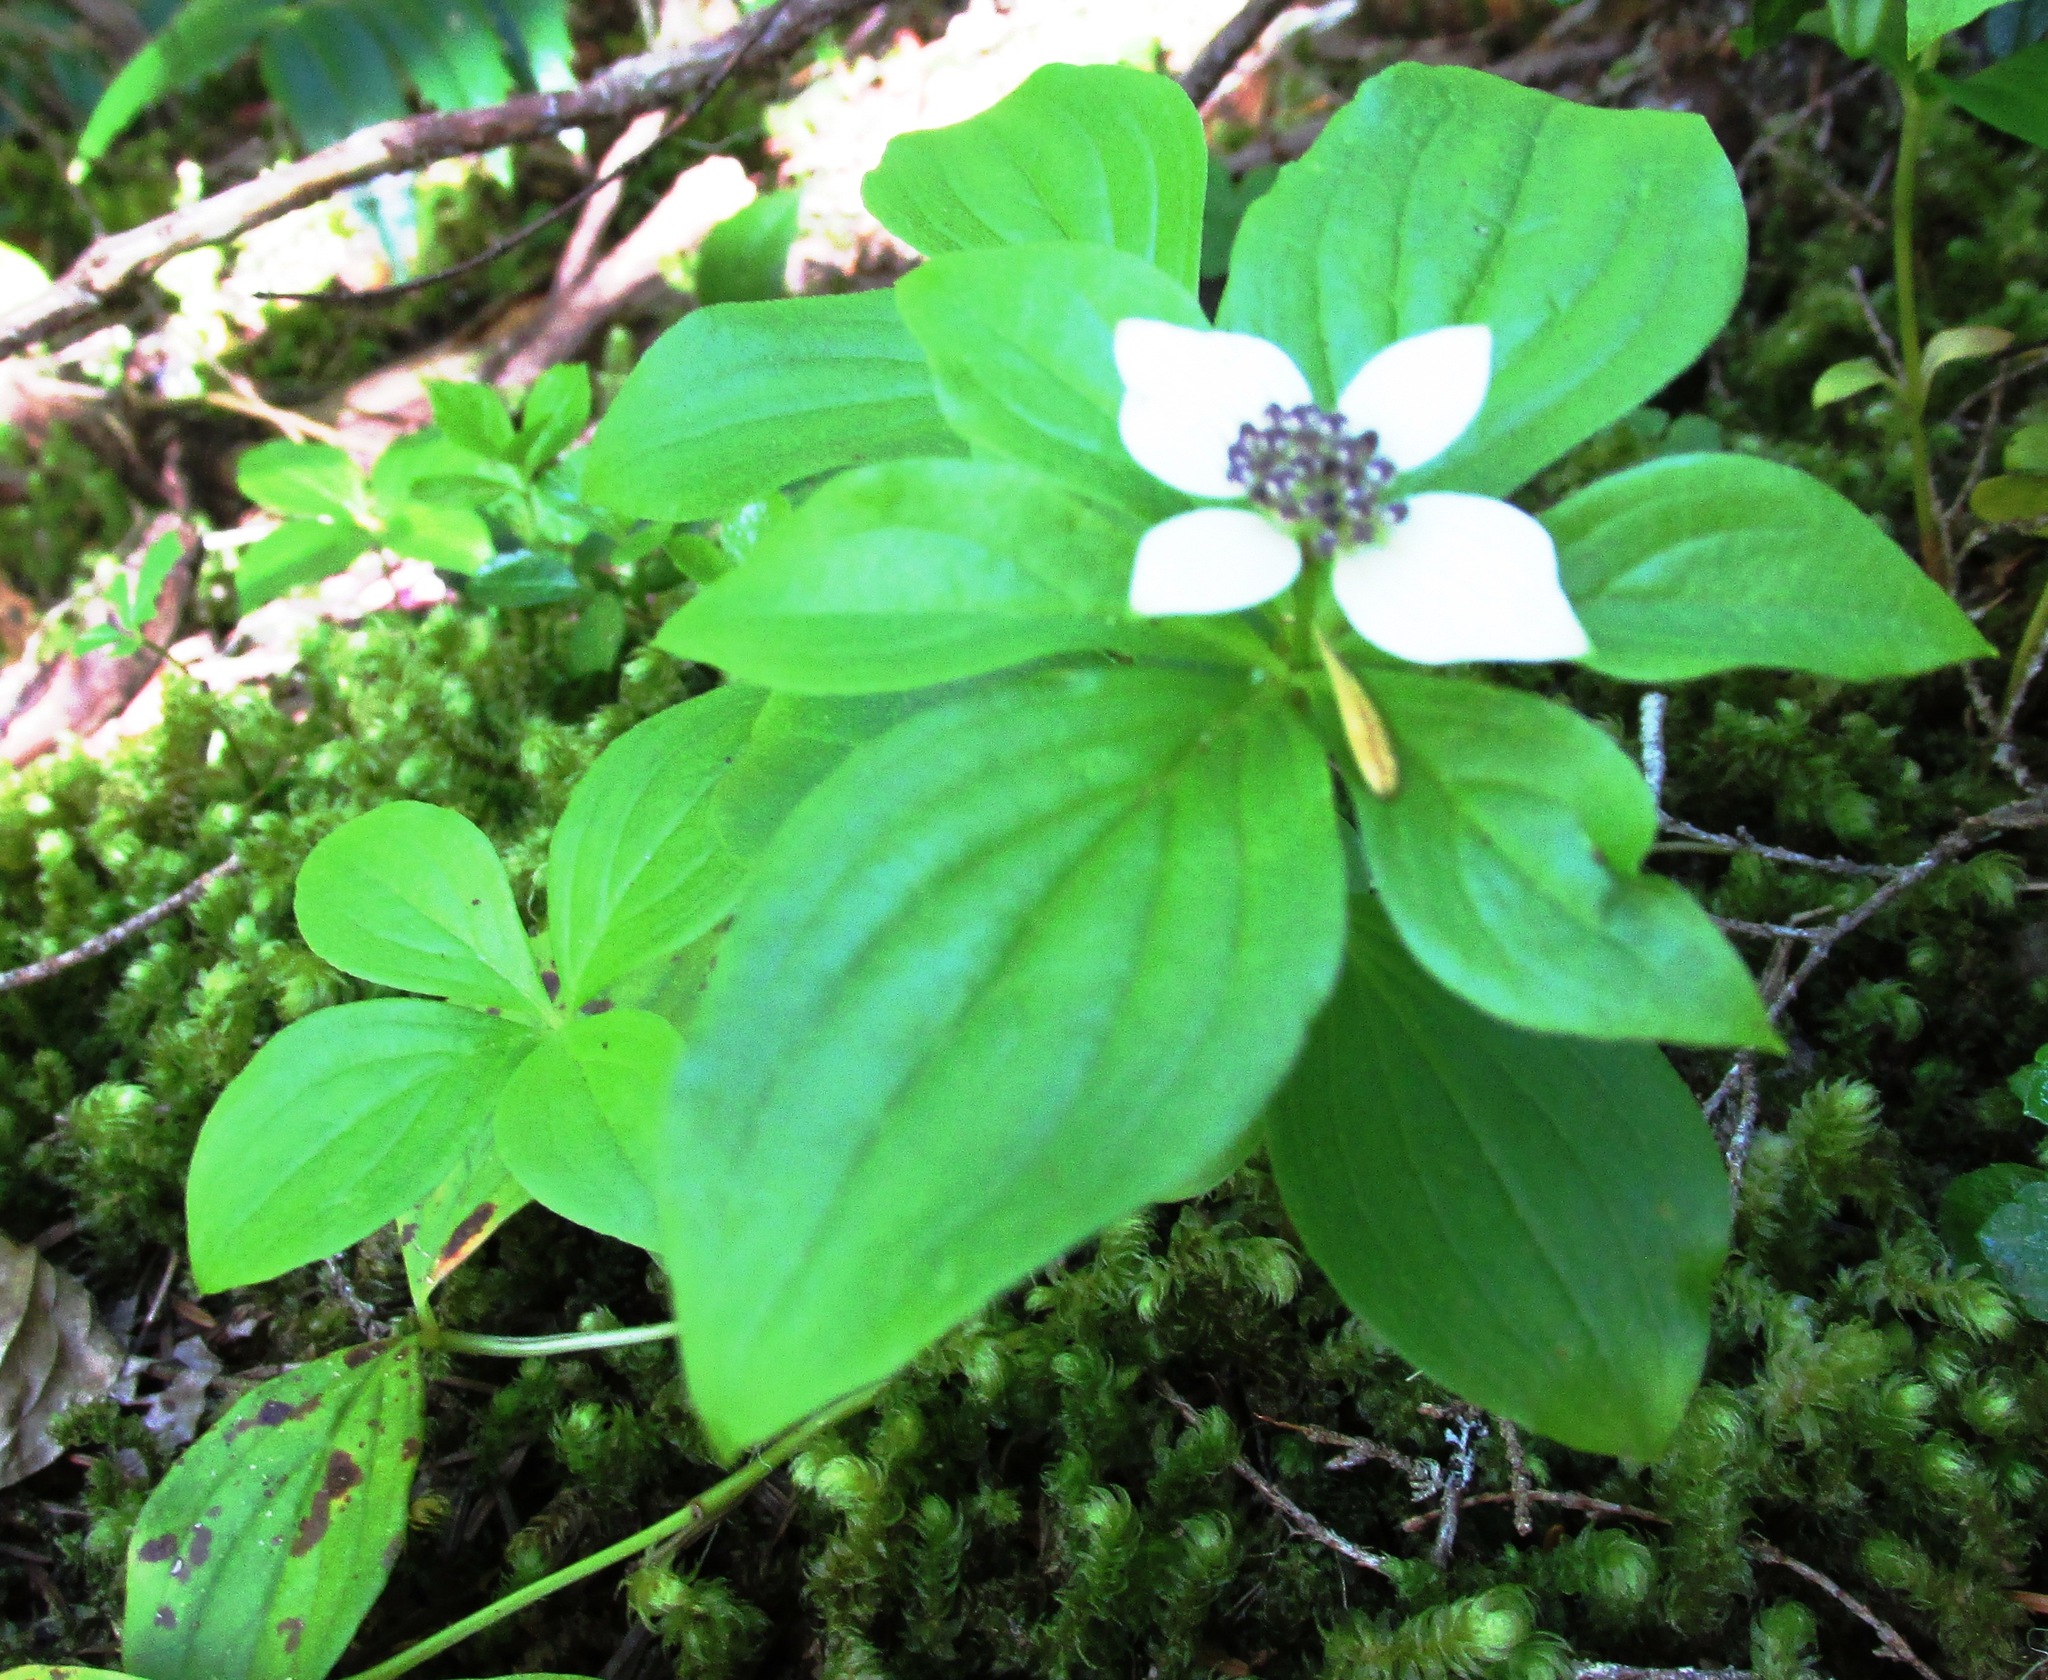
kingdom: Plantae
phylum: Tracheophyta
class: Magnoliopsida
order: Cornales
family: Cornaceae
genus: Cornus
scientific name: Cornus unalaschkensis
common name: Alaska bunchberry
